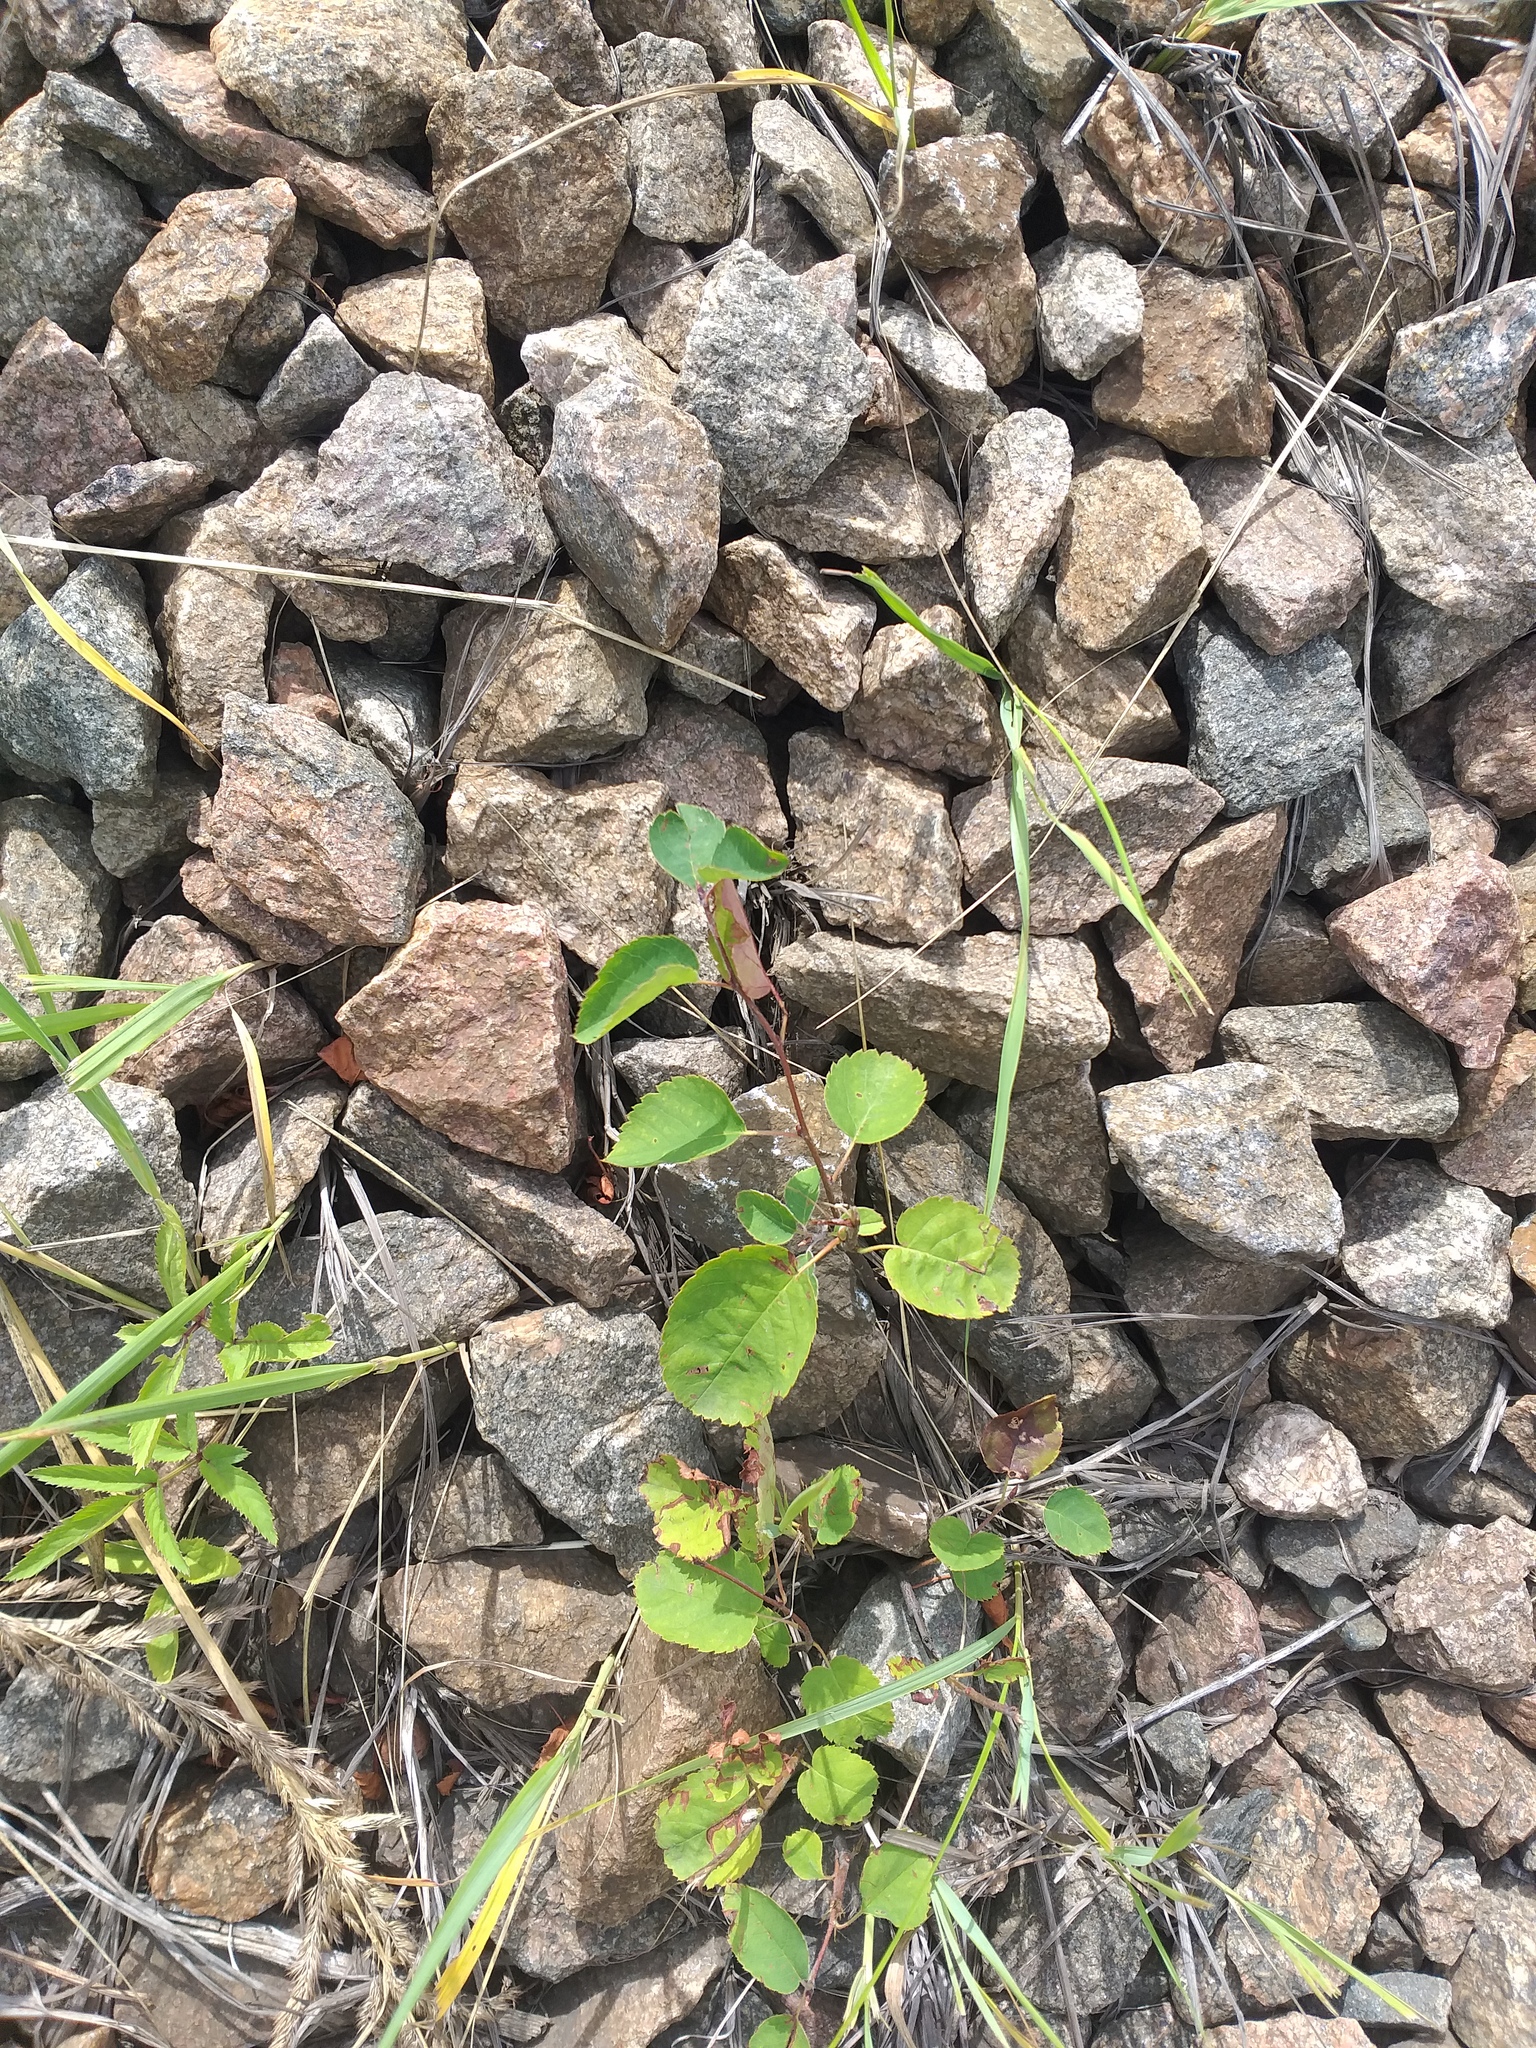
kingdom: Plantae
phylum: Tracheophyta
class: Magnoliopsida
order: Rosales
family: Rosaceae
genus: Amelanchier
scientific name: Amelanchier
